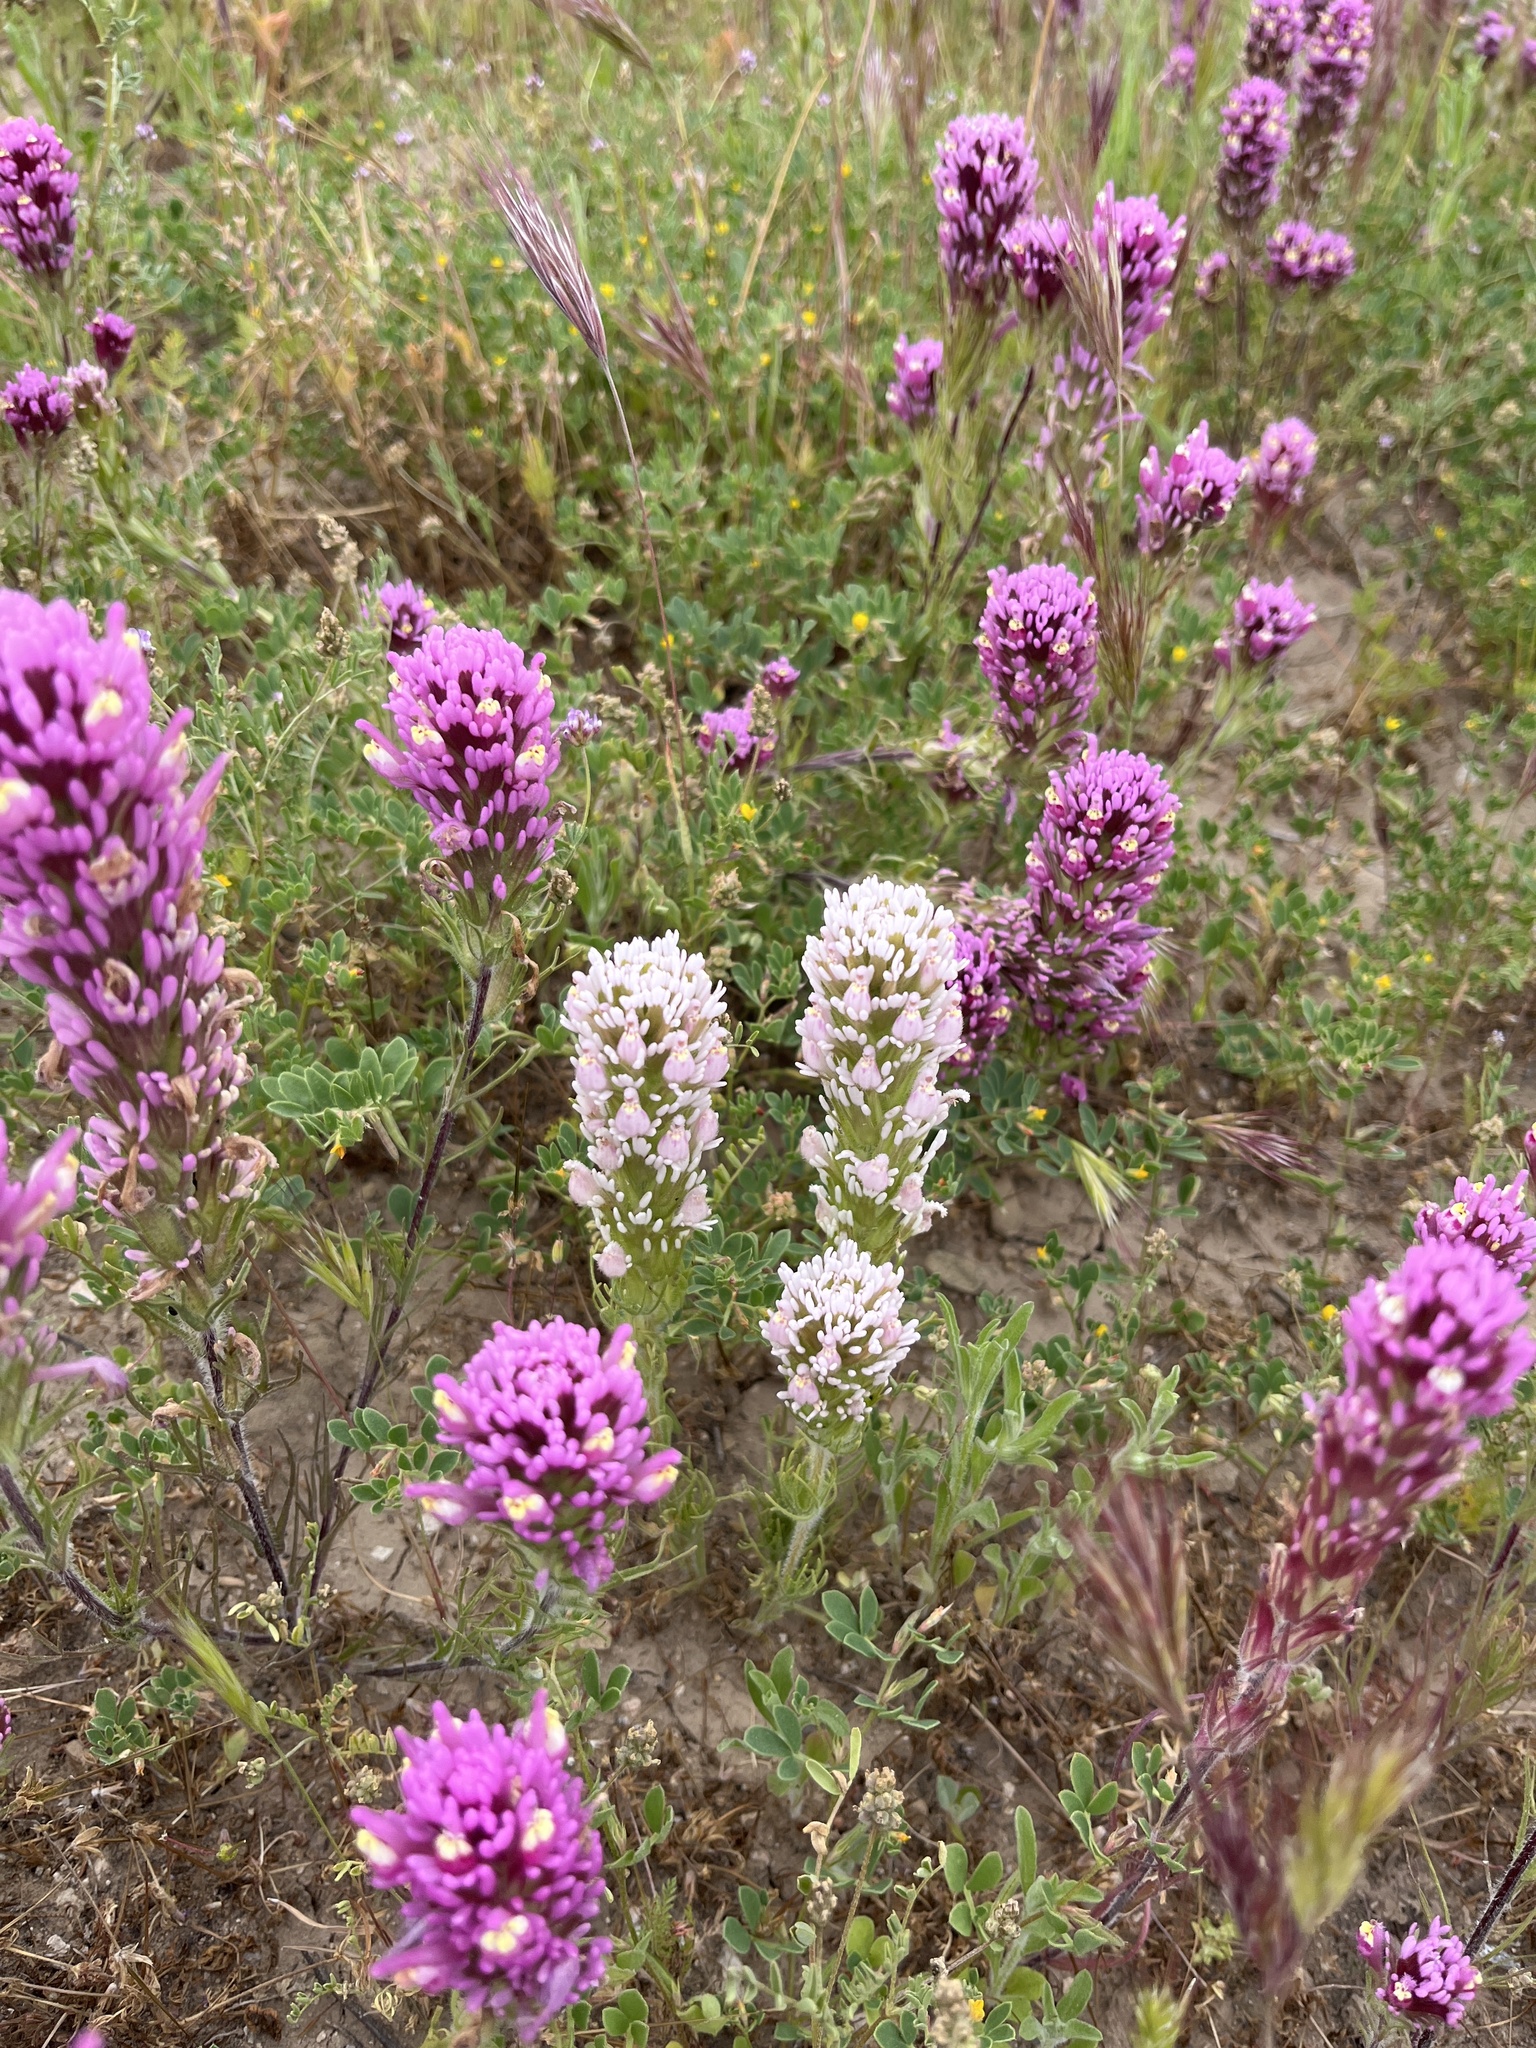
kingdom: Plantae
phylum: Tracheophyta
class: Magnoliopsida
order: Lamiales
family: Orobanchaceae
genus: Castilleja
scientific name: Castilleja exserta
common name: Purple owl-clover
